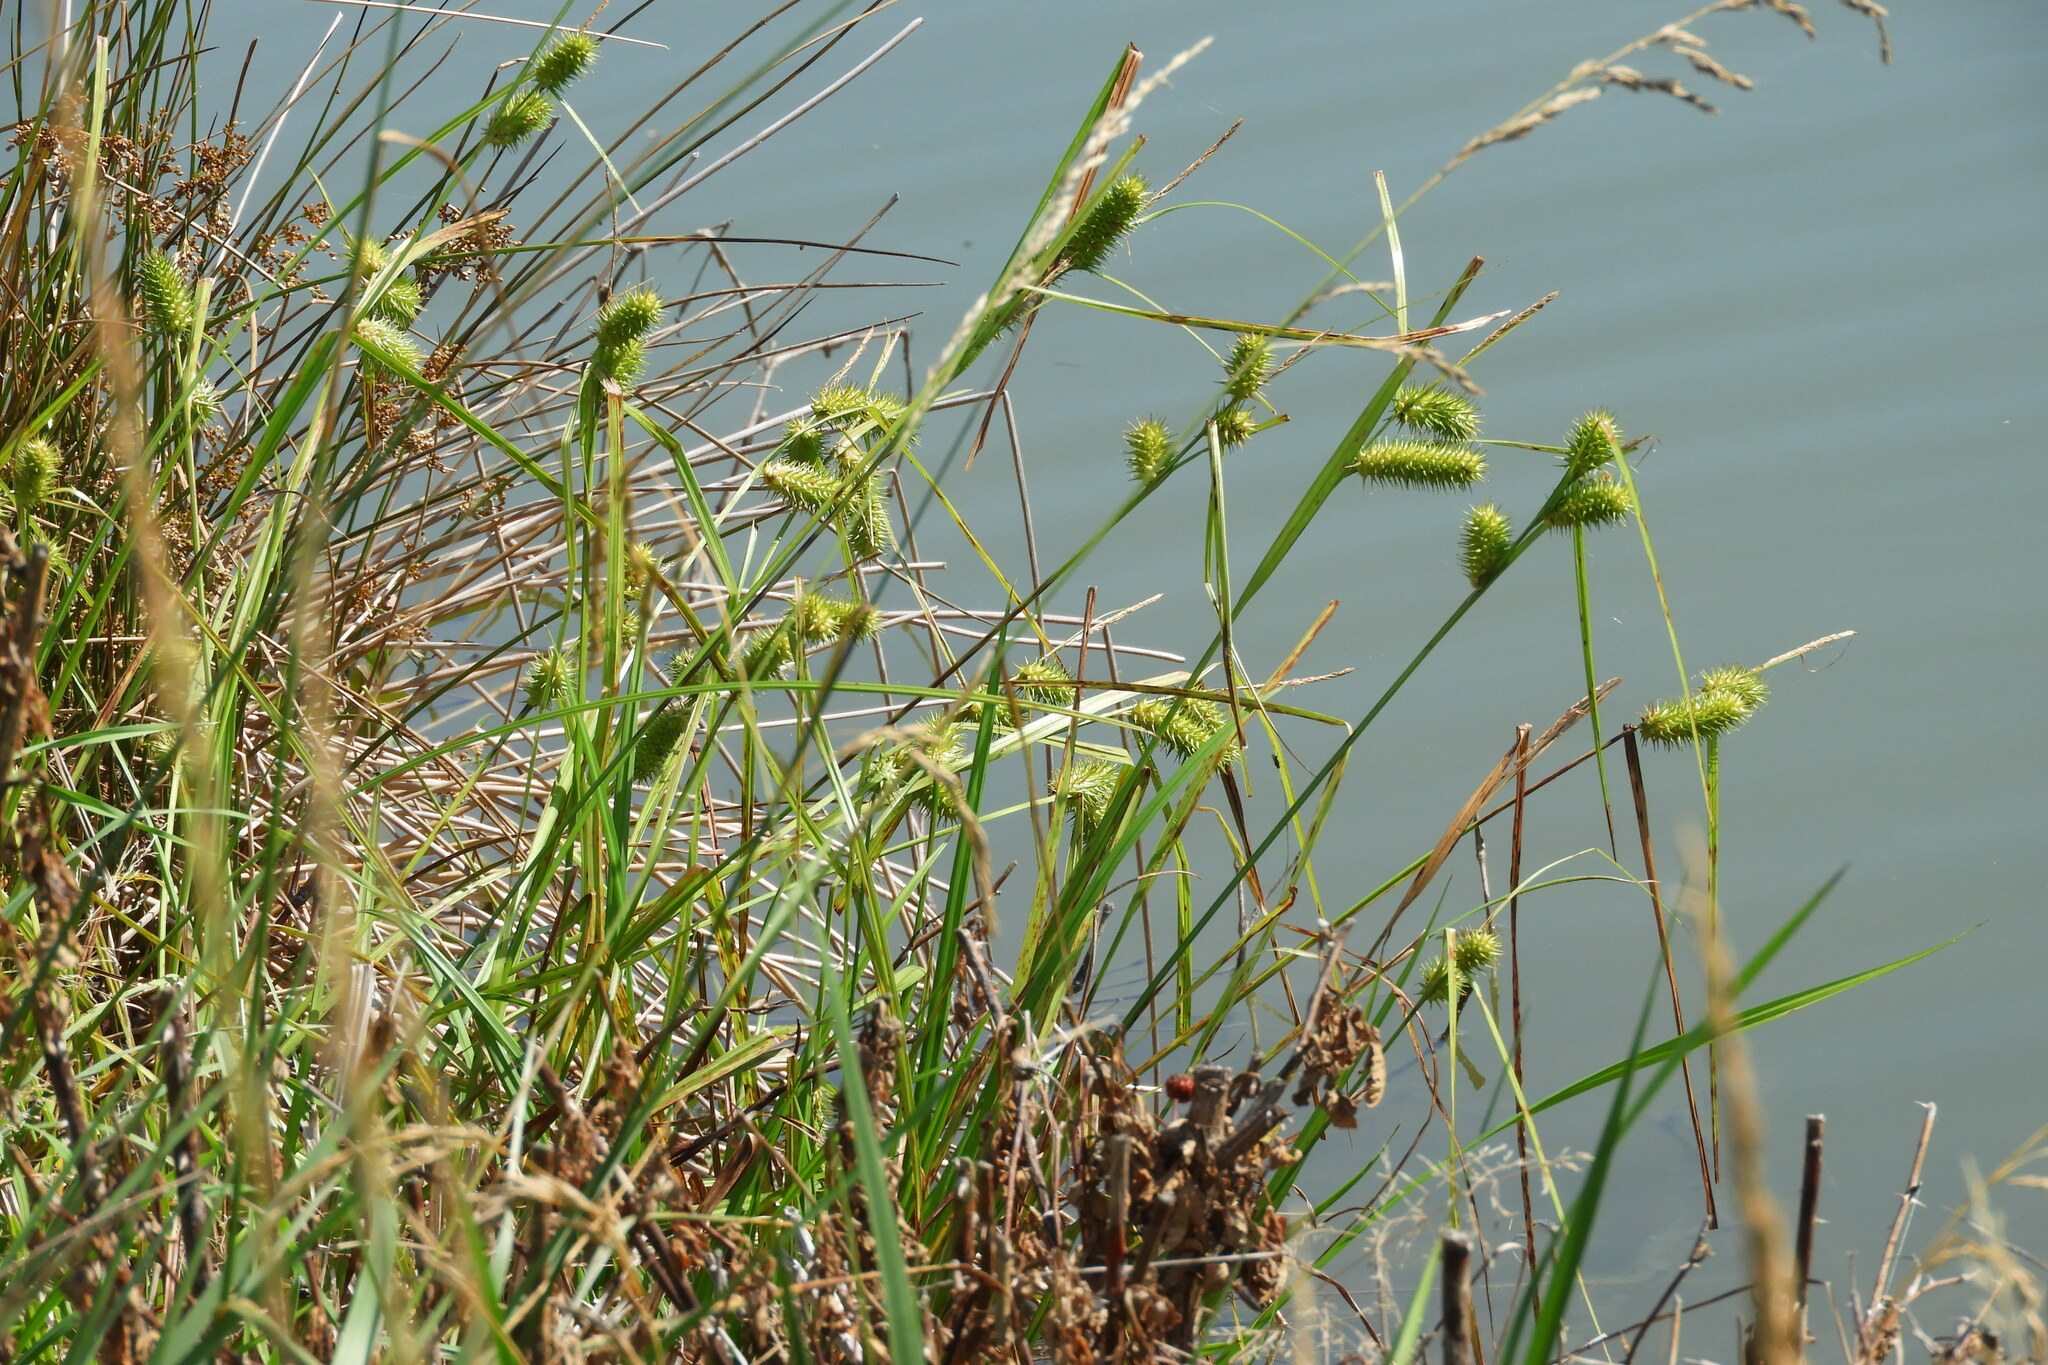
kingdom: Plantae
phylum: Tracheophyta
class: Liliopsida
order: Poales
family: Cyperaceae
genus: Carex
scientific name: Carex lurida
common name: Sallow sedge
